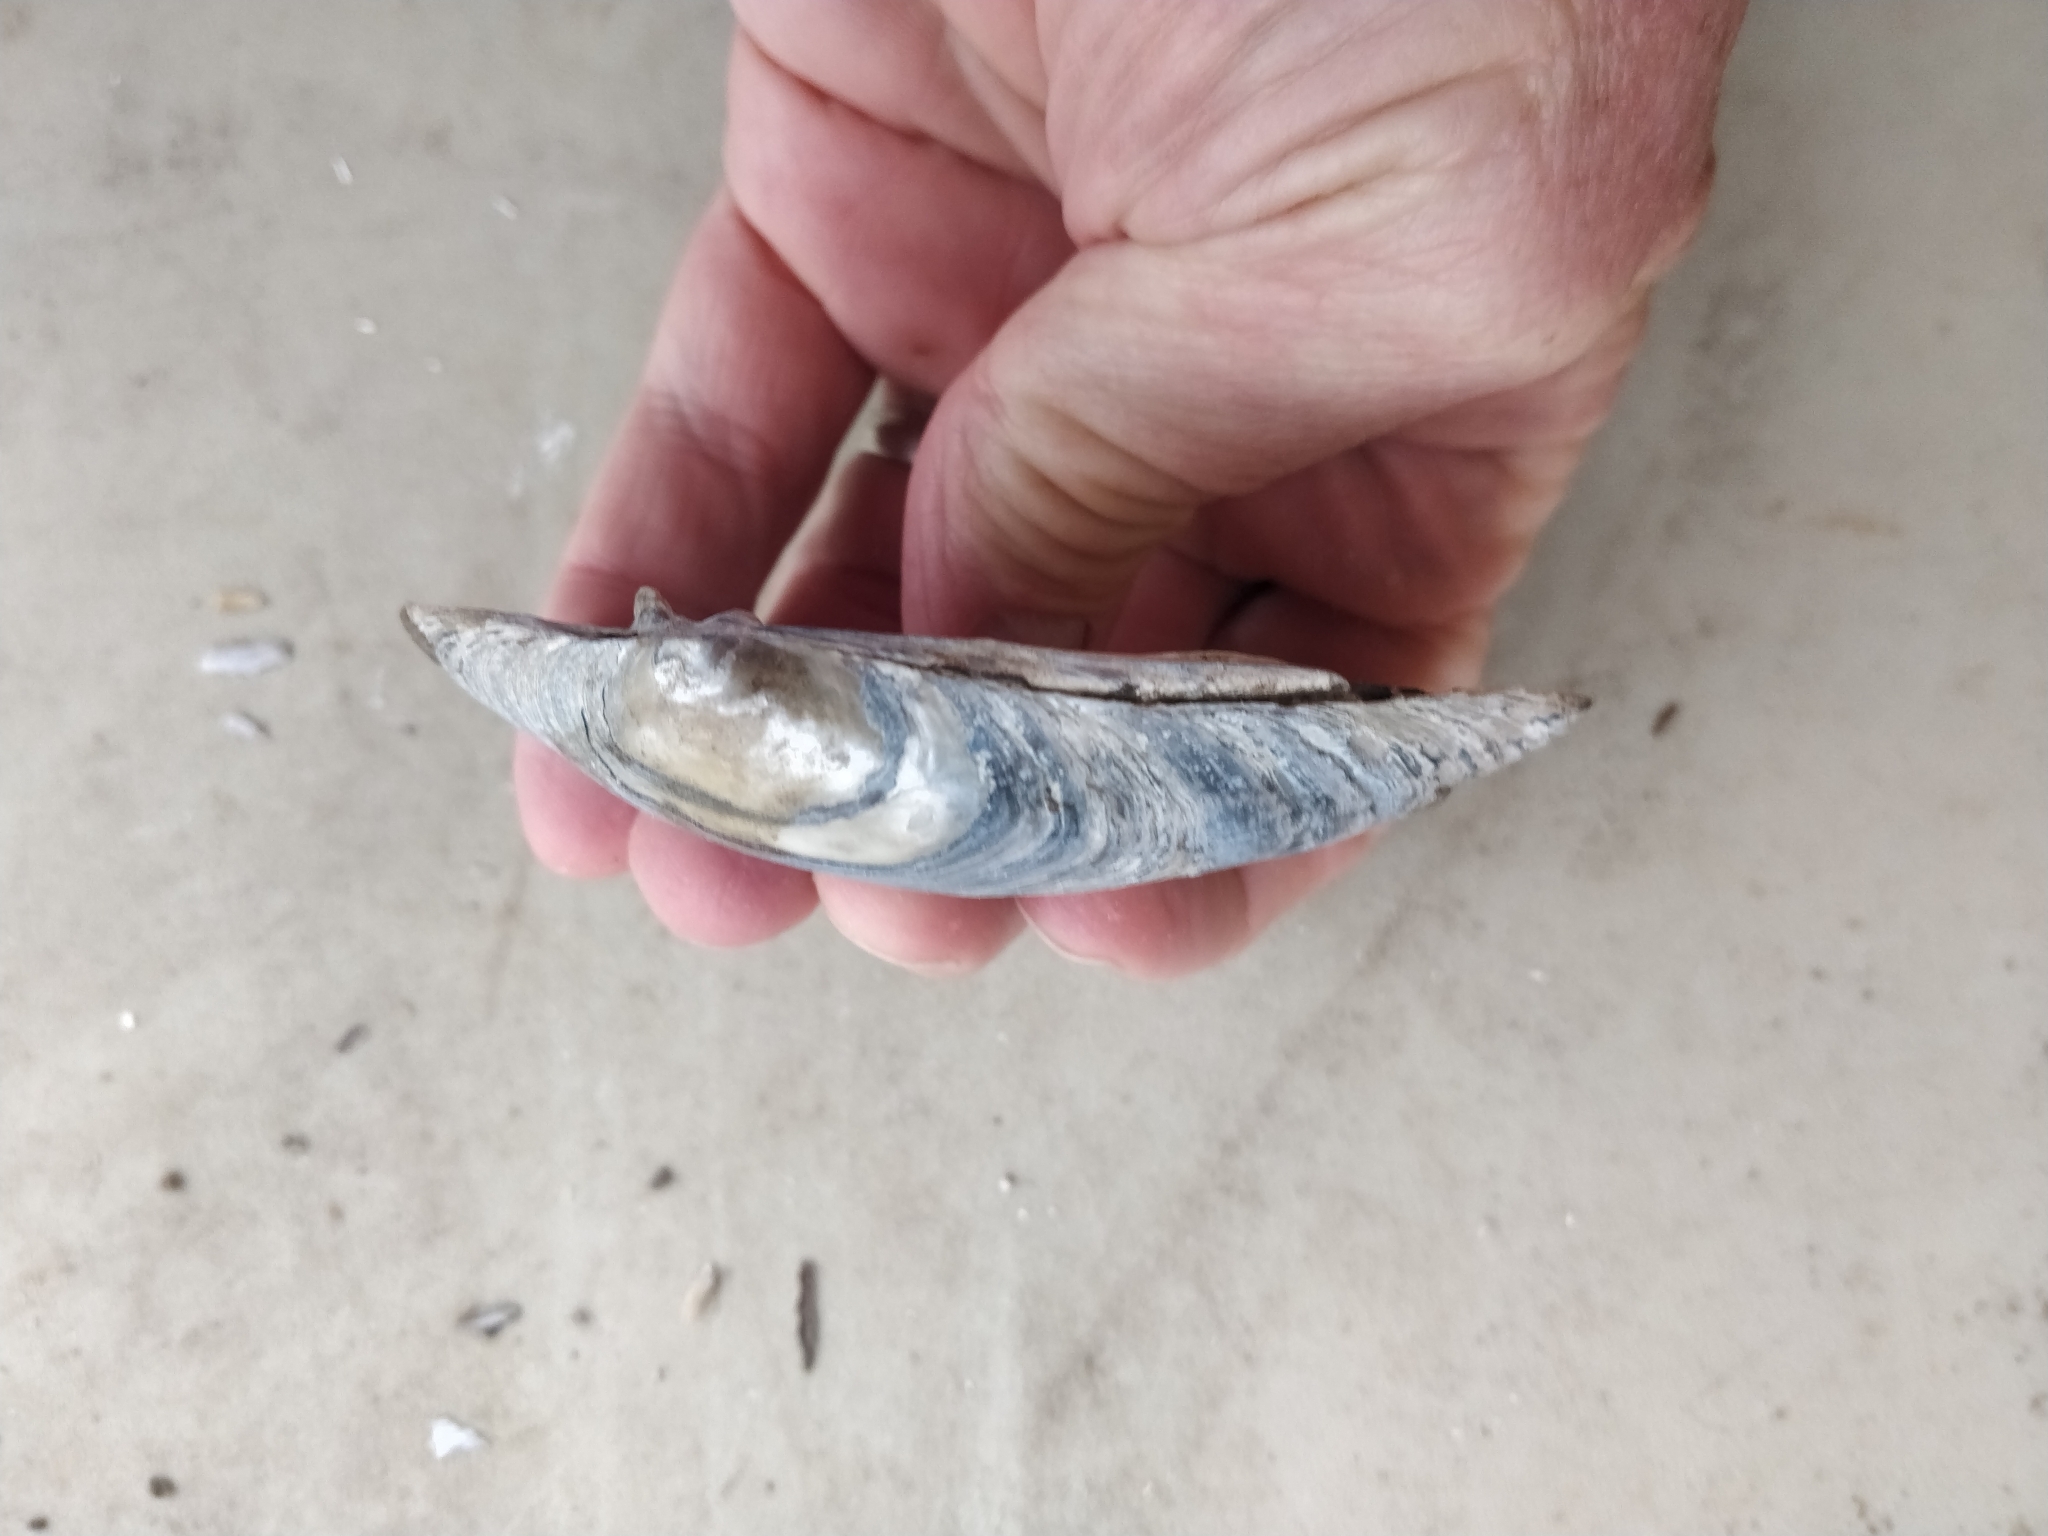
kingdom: Animalia
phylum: Mollusca
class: Bivalvia
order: Unionida
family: Unionidae
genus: Lampsilis
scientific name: Lampsilis cardium
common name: Plain pocketbook
